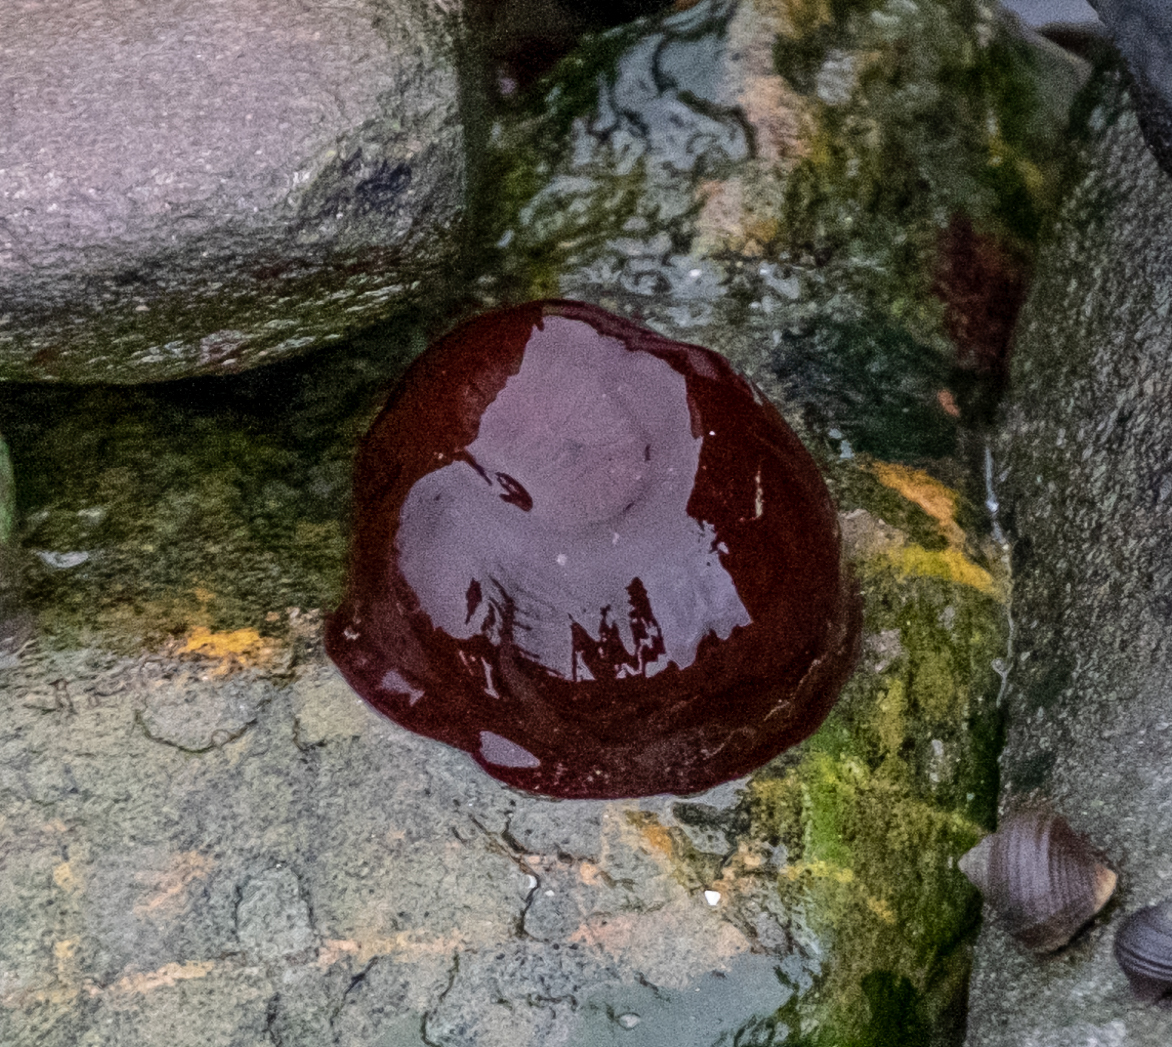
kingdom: Animalia
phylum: Cnidaria
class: Anthozoa
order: Actiniaria
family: Actiniidae
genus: Actinia
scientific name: Actinia equina
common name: Beadlet anemone
